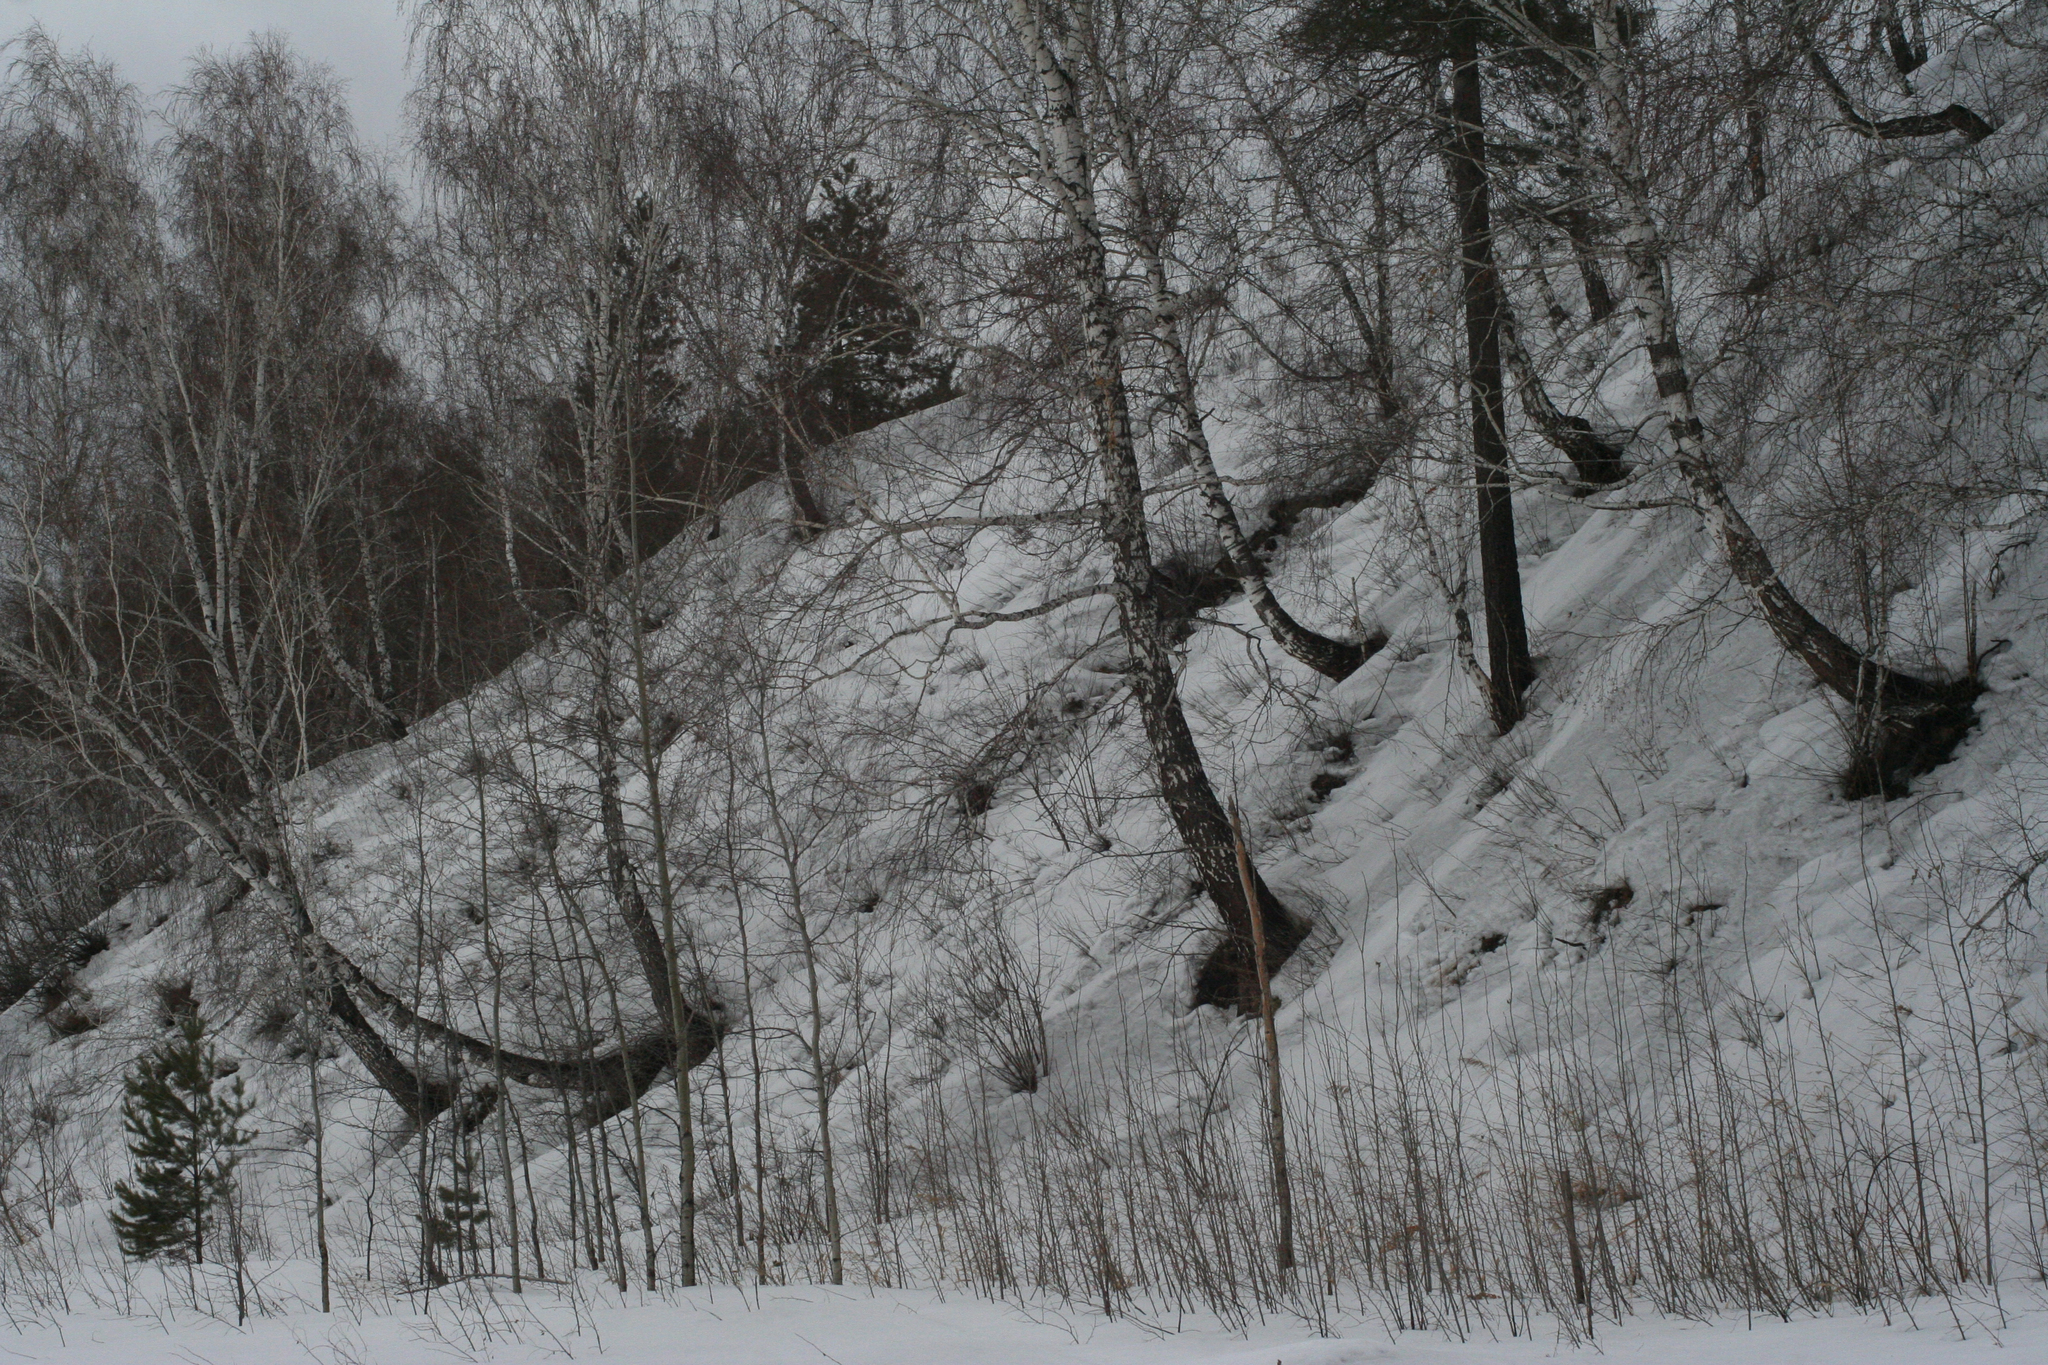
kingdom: Plantae
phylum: Tracheophyta
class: Magnoliopsida
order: Fagales
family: Betulaceae
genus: Betula
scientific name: Betula pendula
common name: Silver birch
